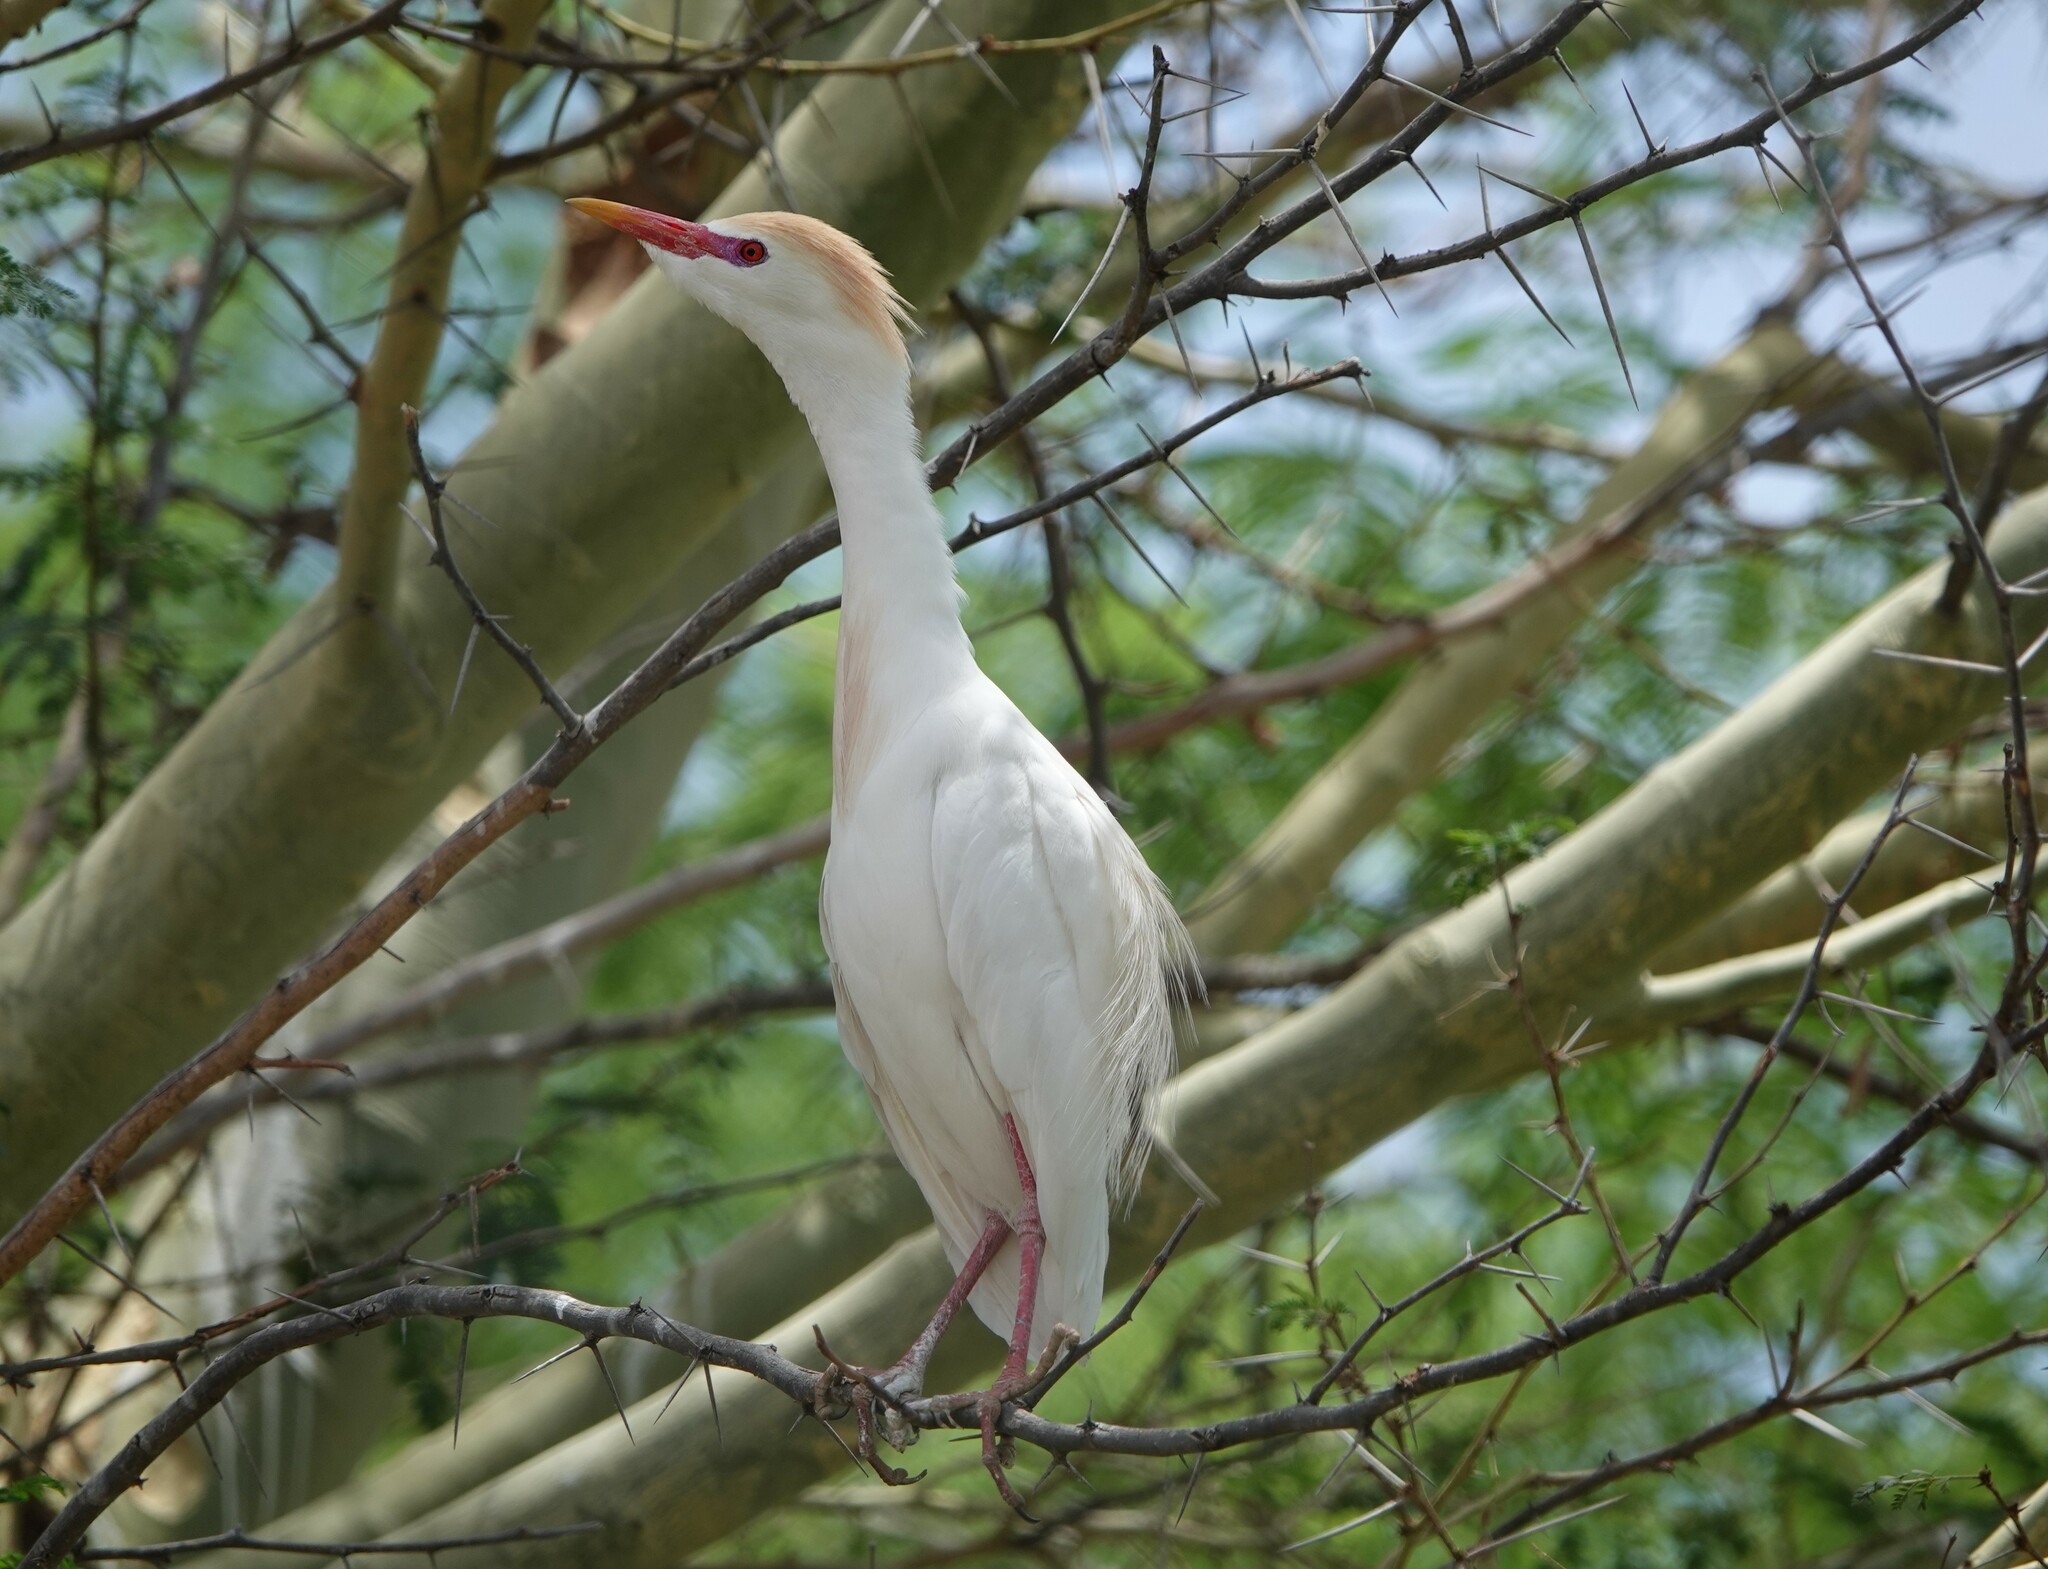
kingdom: Animalia
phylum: Chordata
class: Aves
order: Pelecaniformes
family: Ardeidae
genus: Bubulcus
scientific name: Bubulcus ibis
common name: Cattle egret
